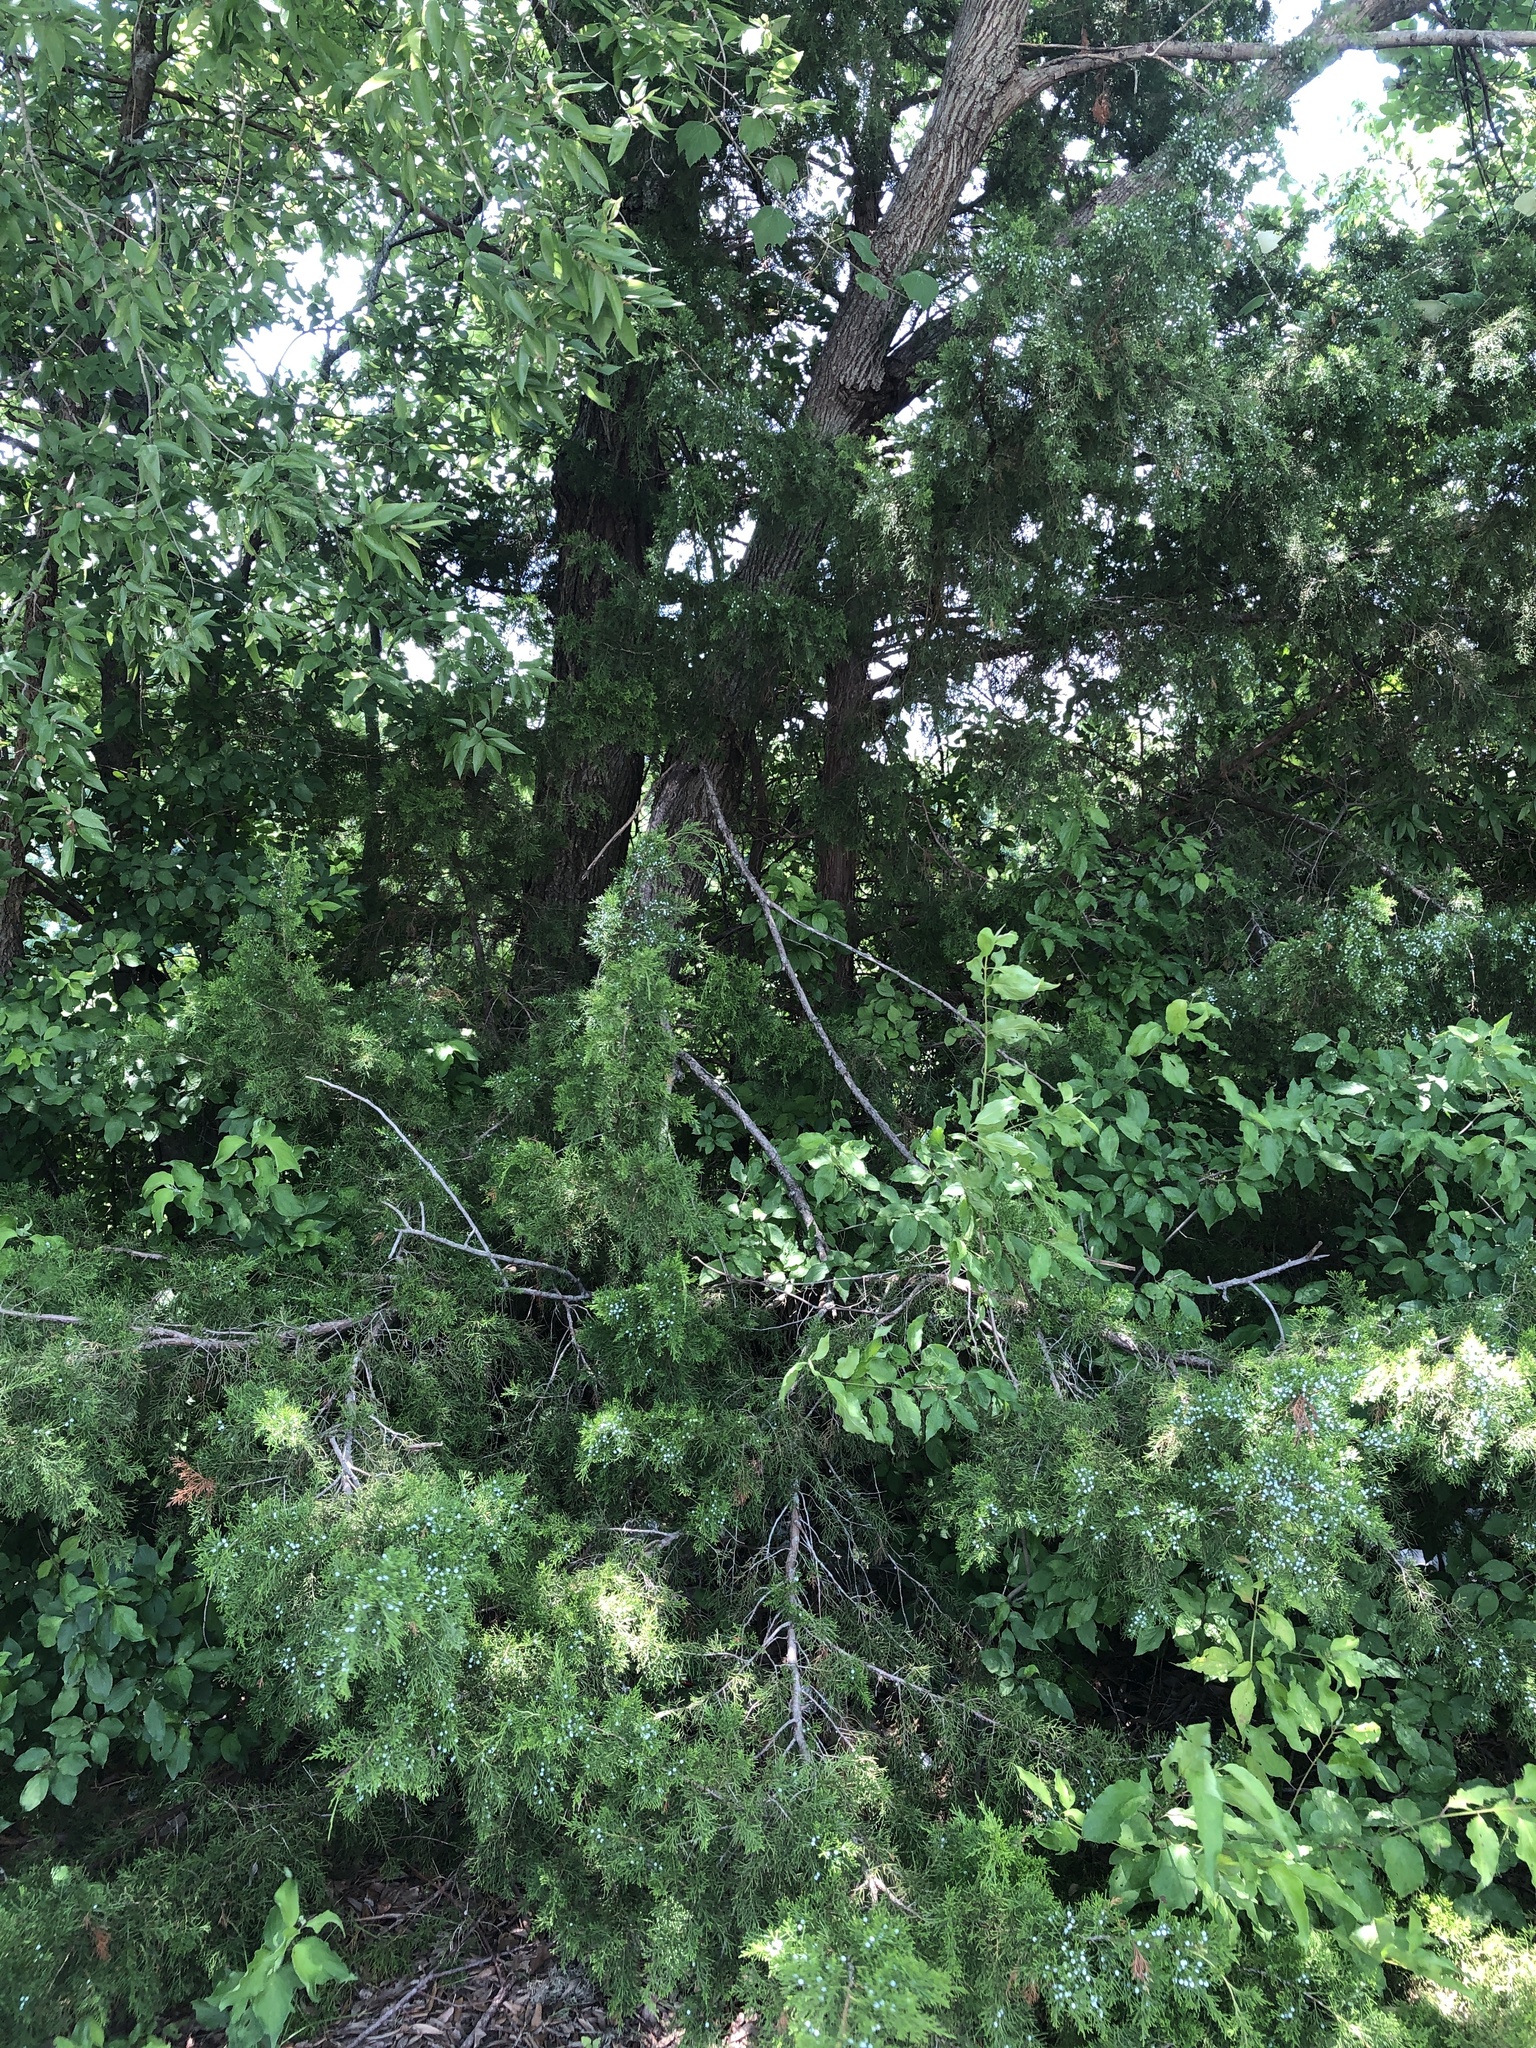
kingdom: Plantae
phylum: Tracheophyta
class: Pinopsida
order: Pinales
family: Cupressaceae
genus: Juniperus
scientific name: Juniperus virginiana
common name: Red juniper
